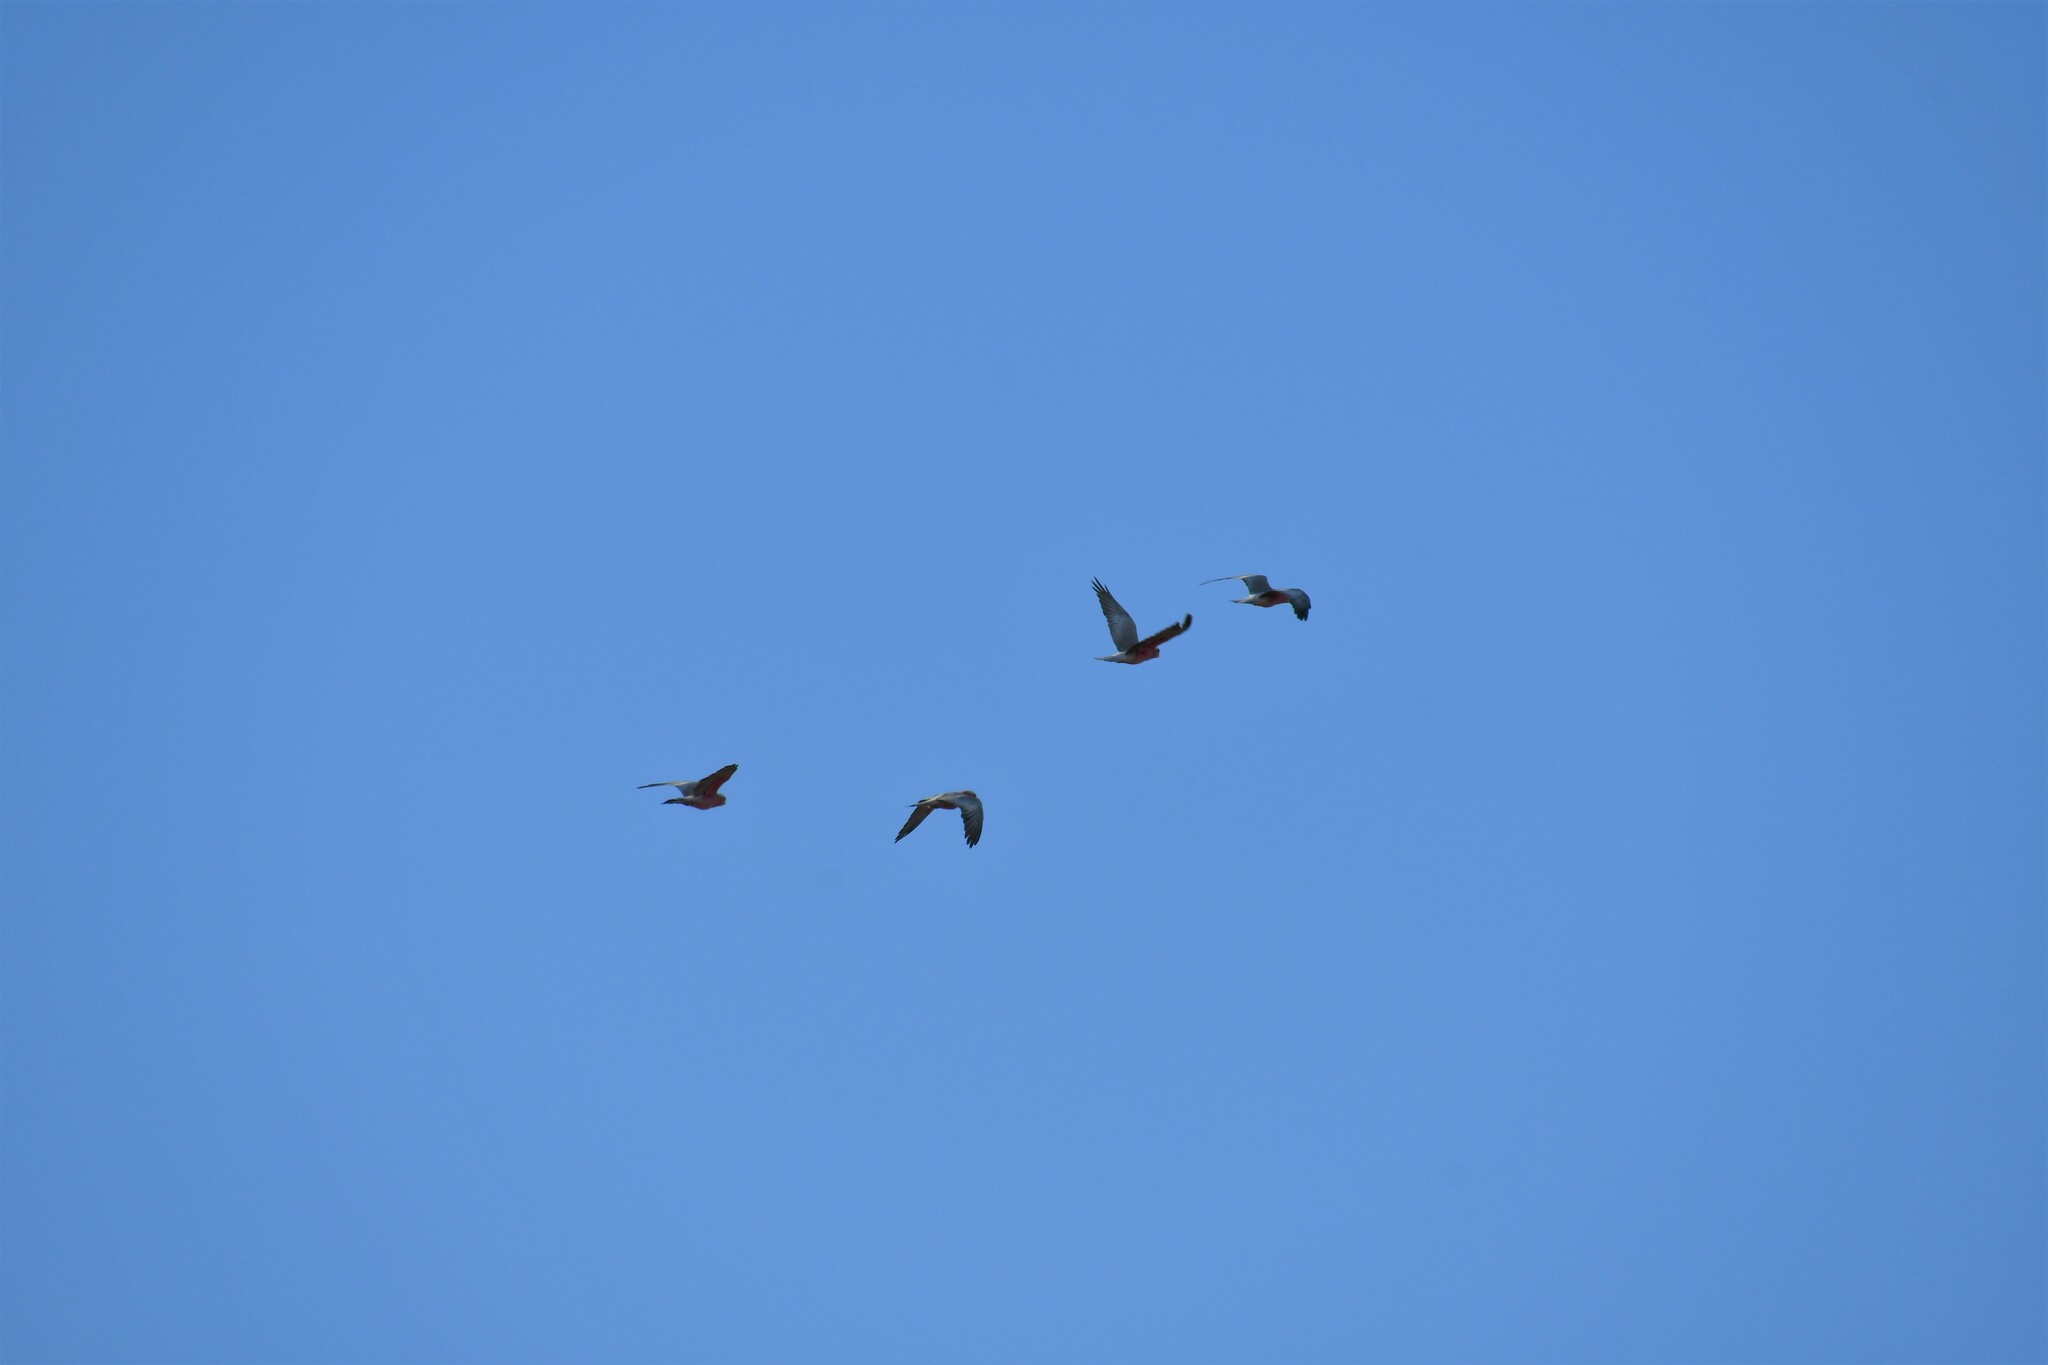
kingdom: Animalia
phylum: Chordata
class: Aves
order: Psittaciformes
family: Psittacidae
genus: Eolophus
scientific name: Eolophus roseicapilla
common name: Galah
